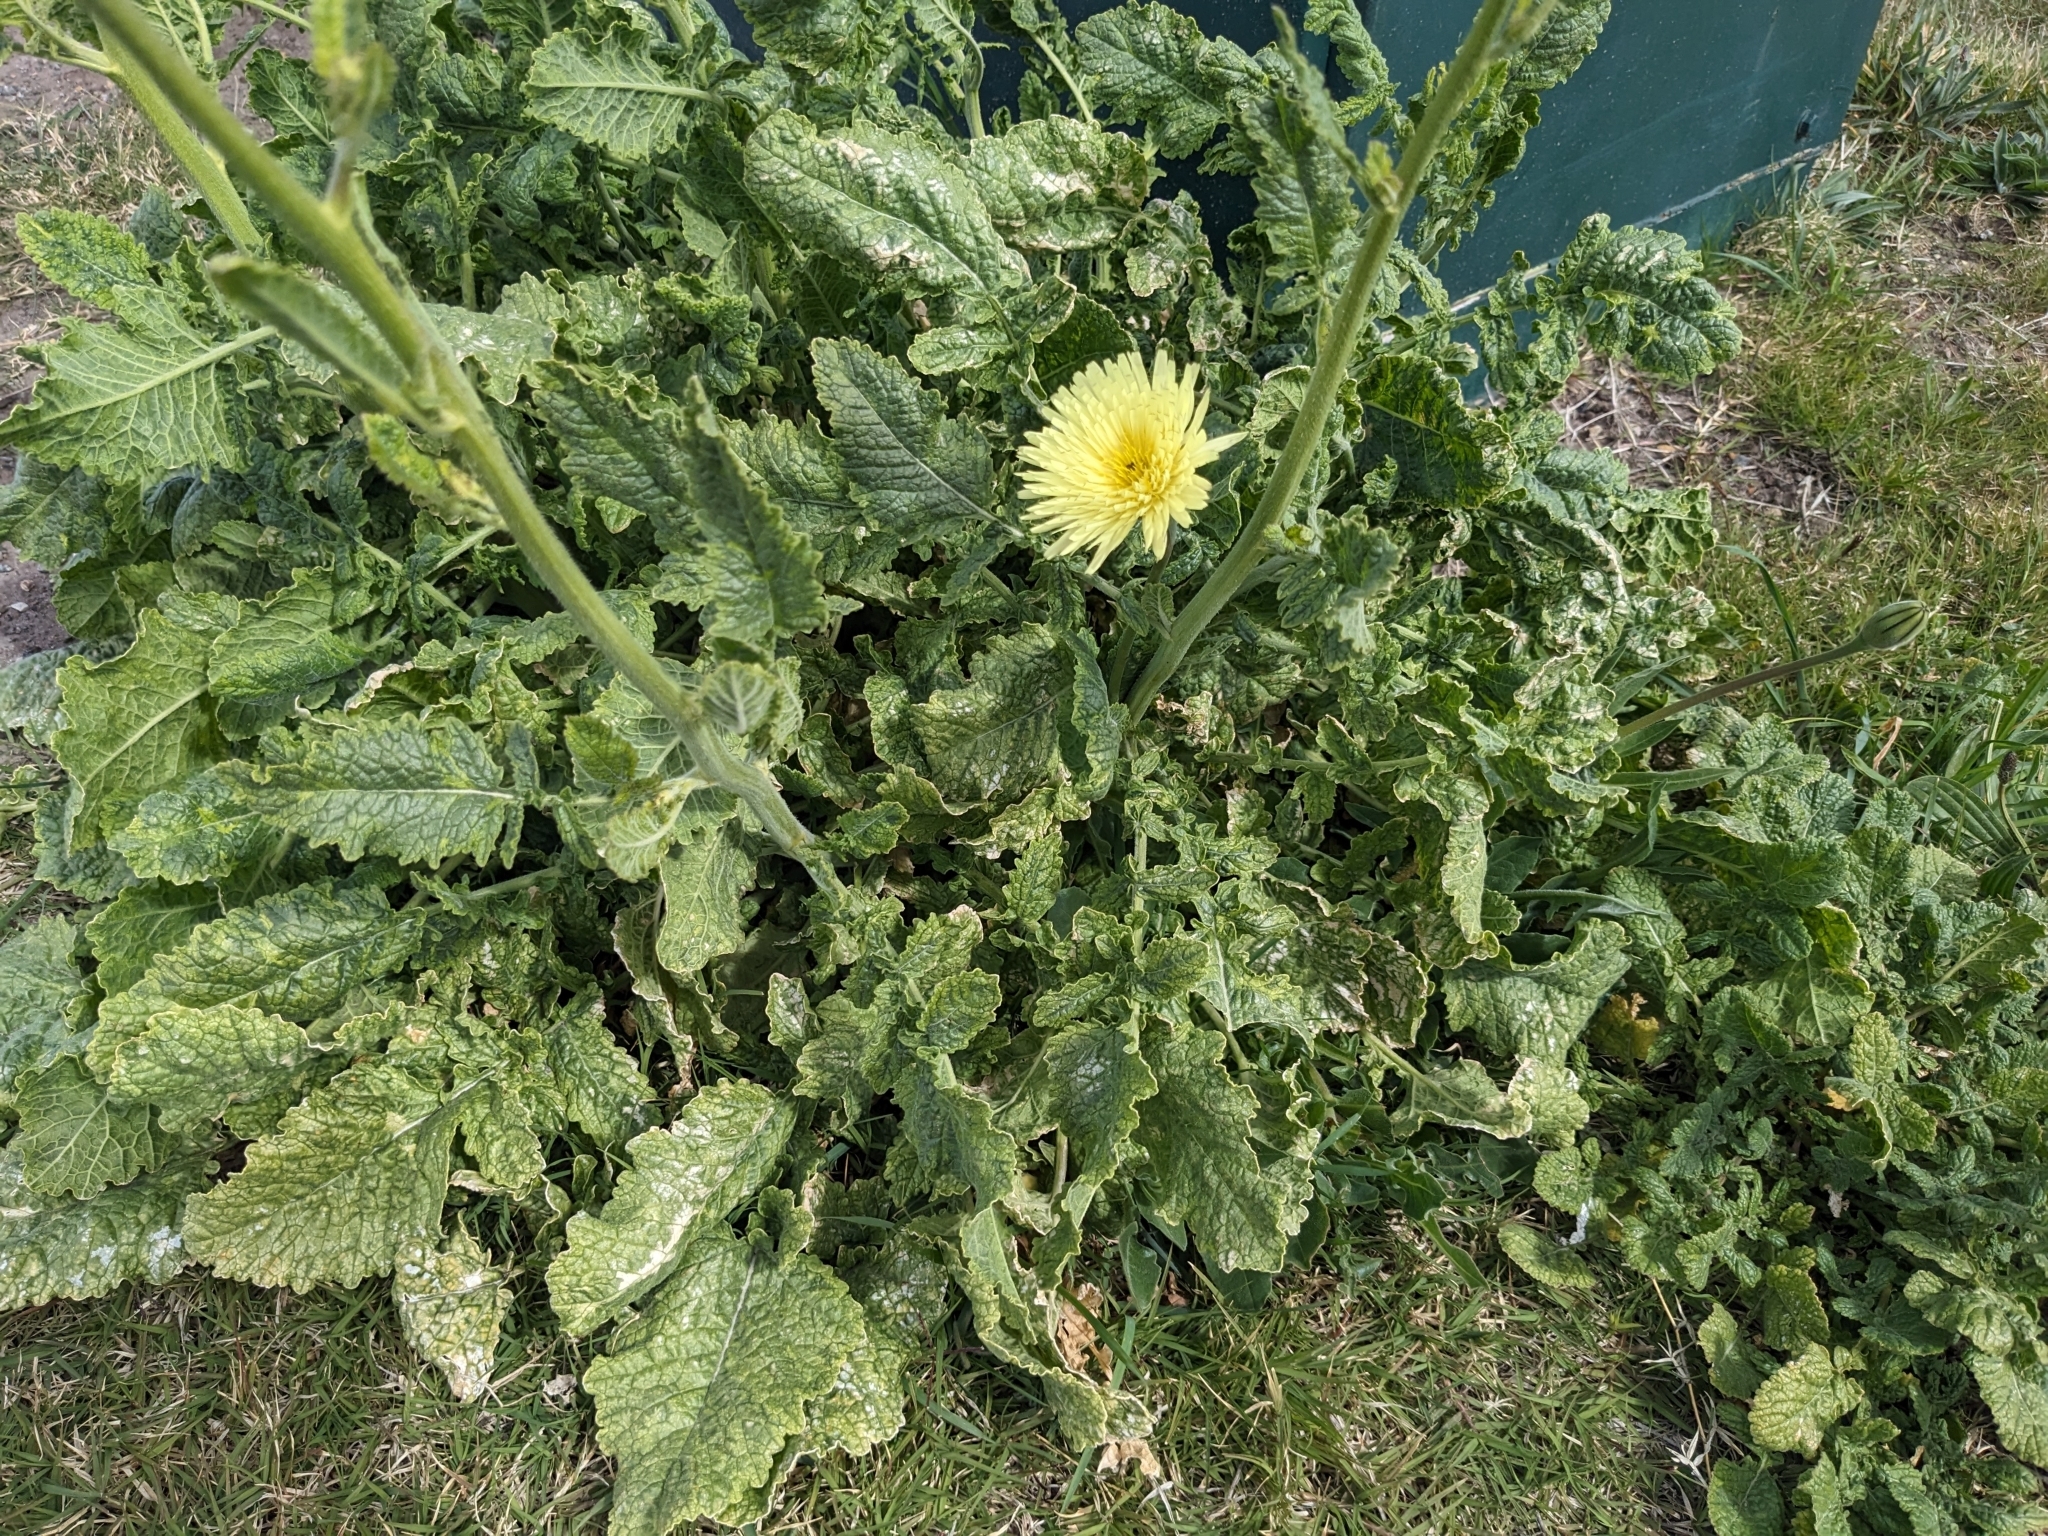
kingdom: Plantae
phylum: Tracheophyta
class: Magnoliopsida
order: Asterales
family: Asteraceae
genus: Urospermum
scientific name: Urospermum dalechampii
